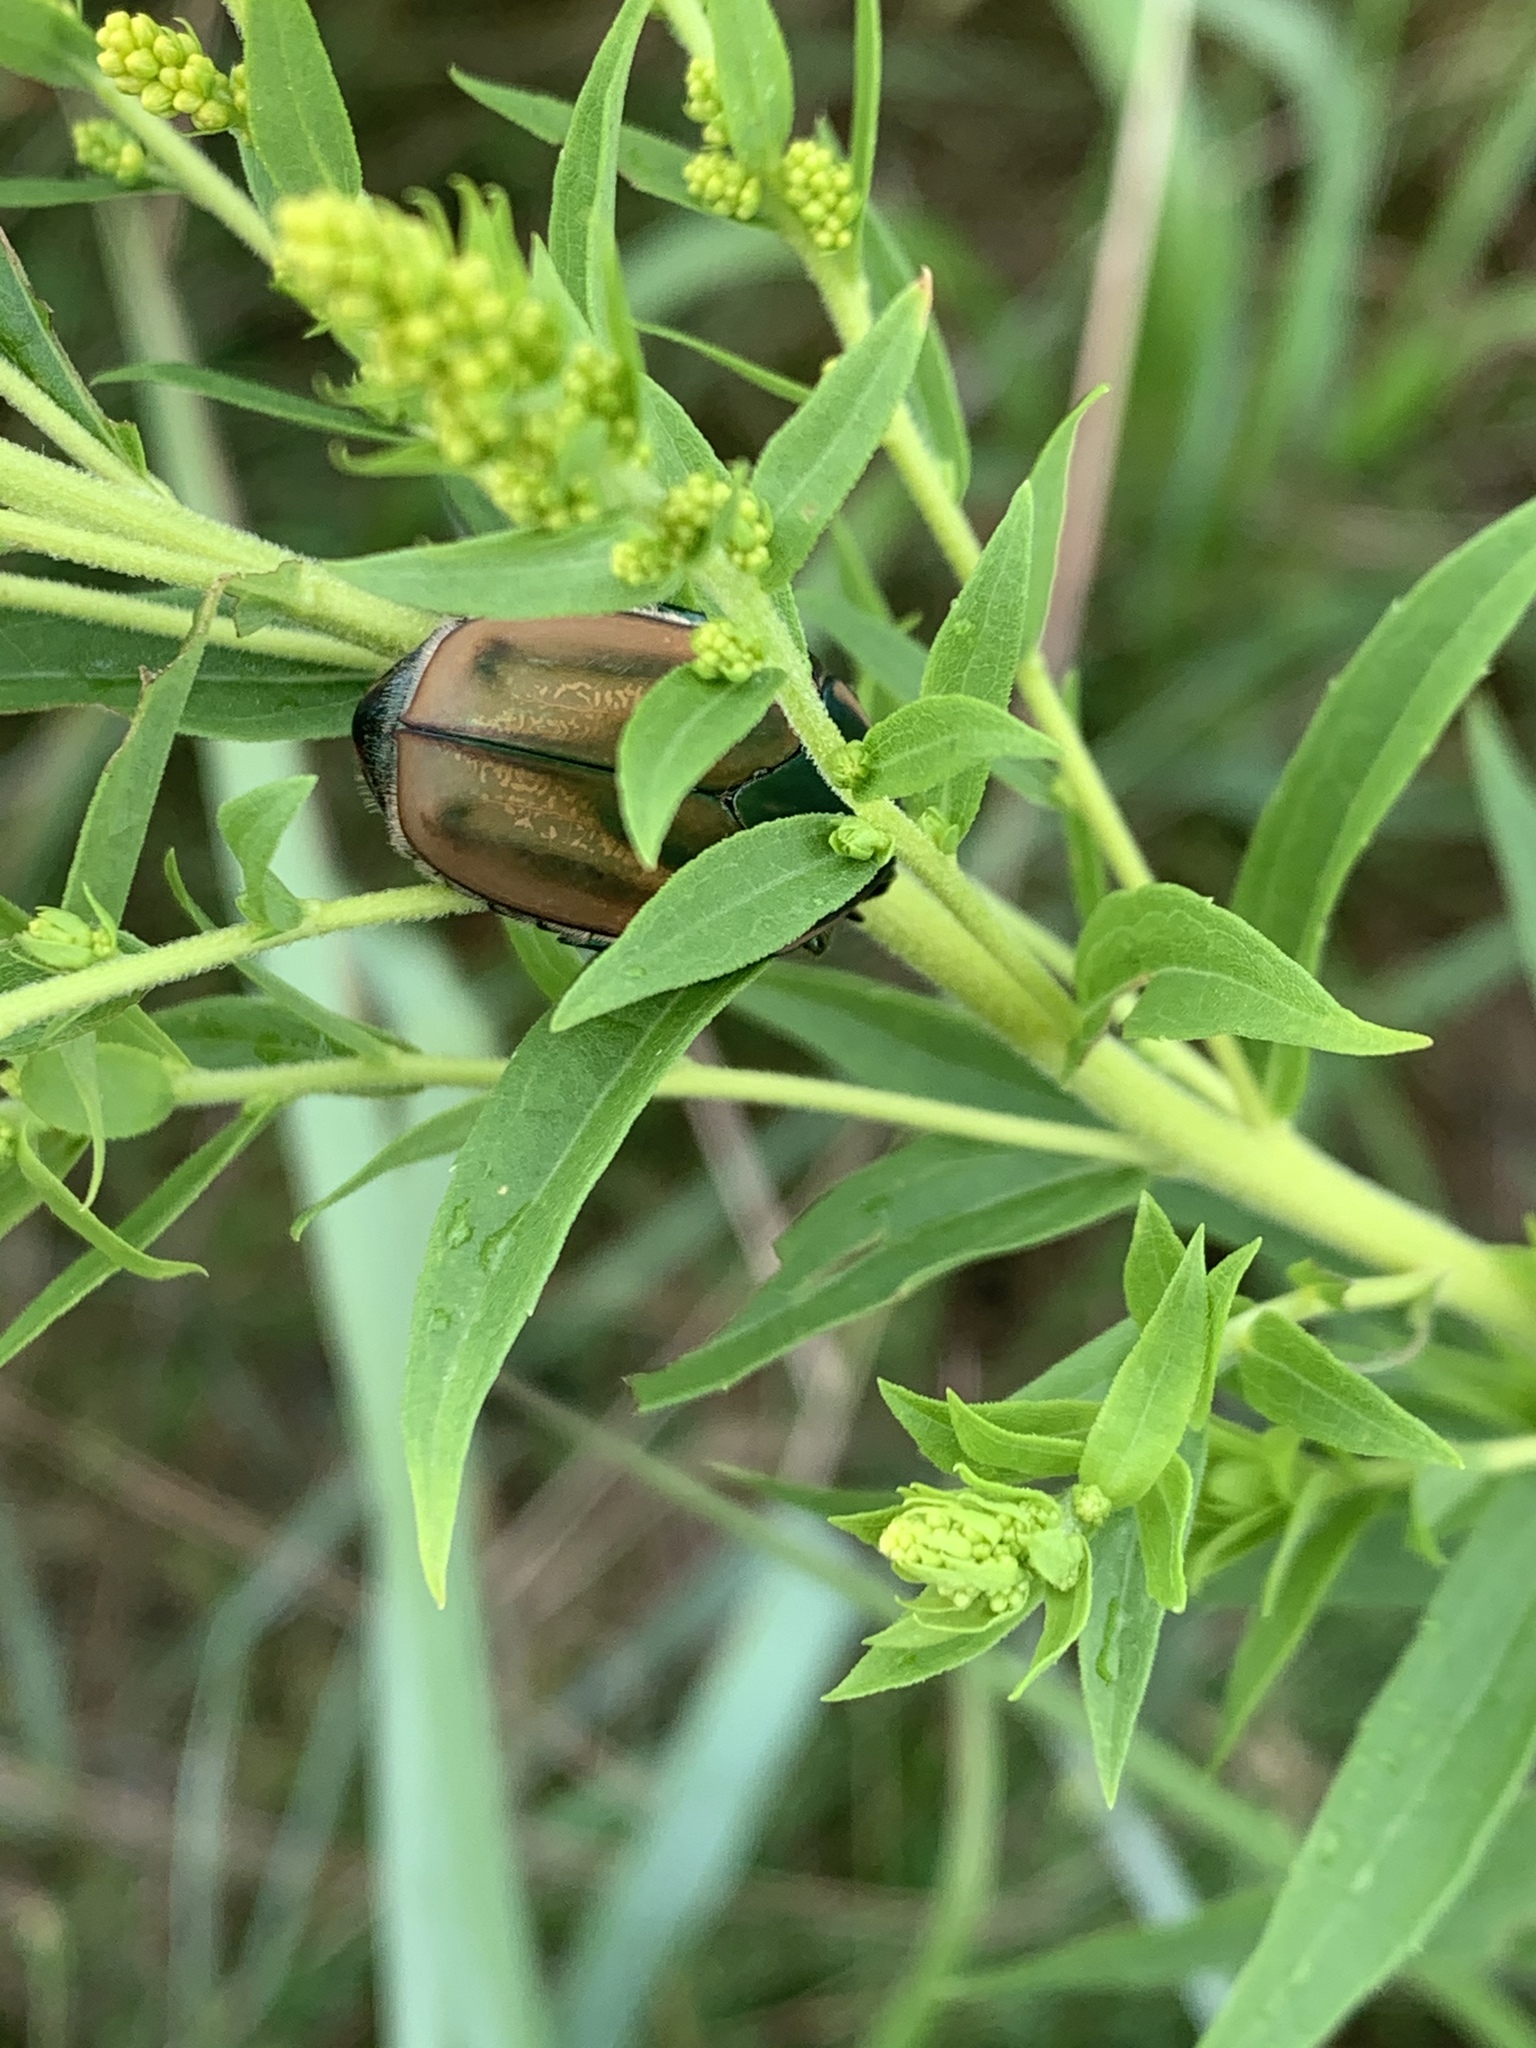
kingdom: Animalia
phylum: Arthropoda
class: Insecta
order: Coleoptera
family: Scarabaeidae
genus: Cotinis
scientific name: Cotinis nitida
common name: Common green june beetle
